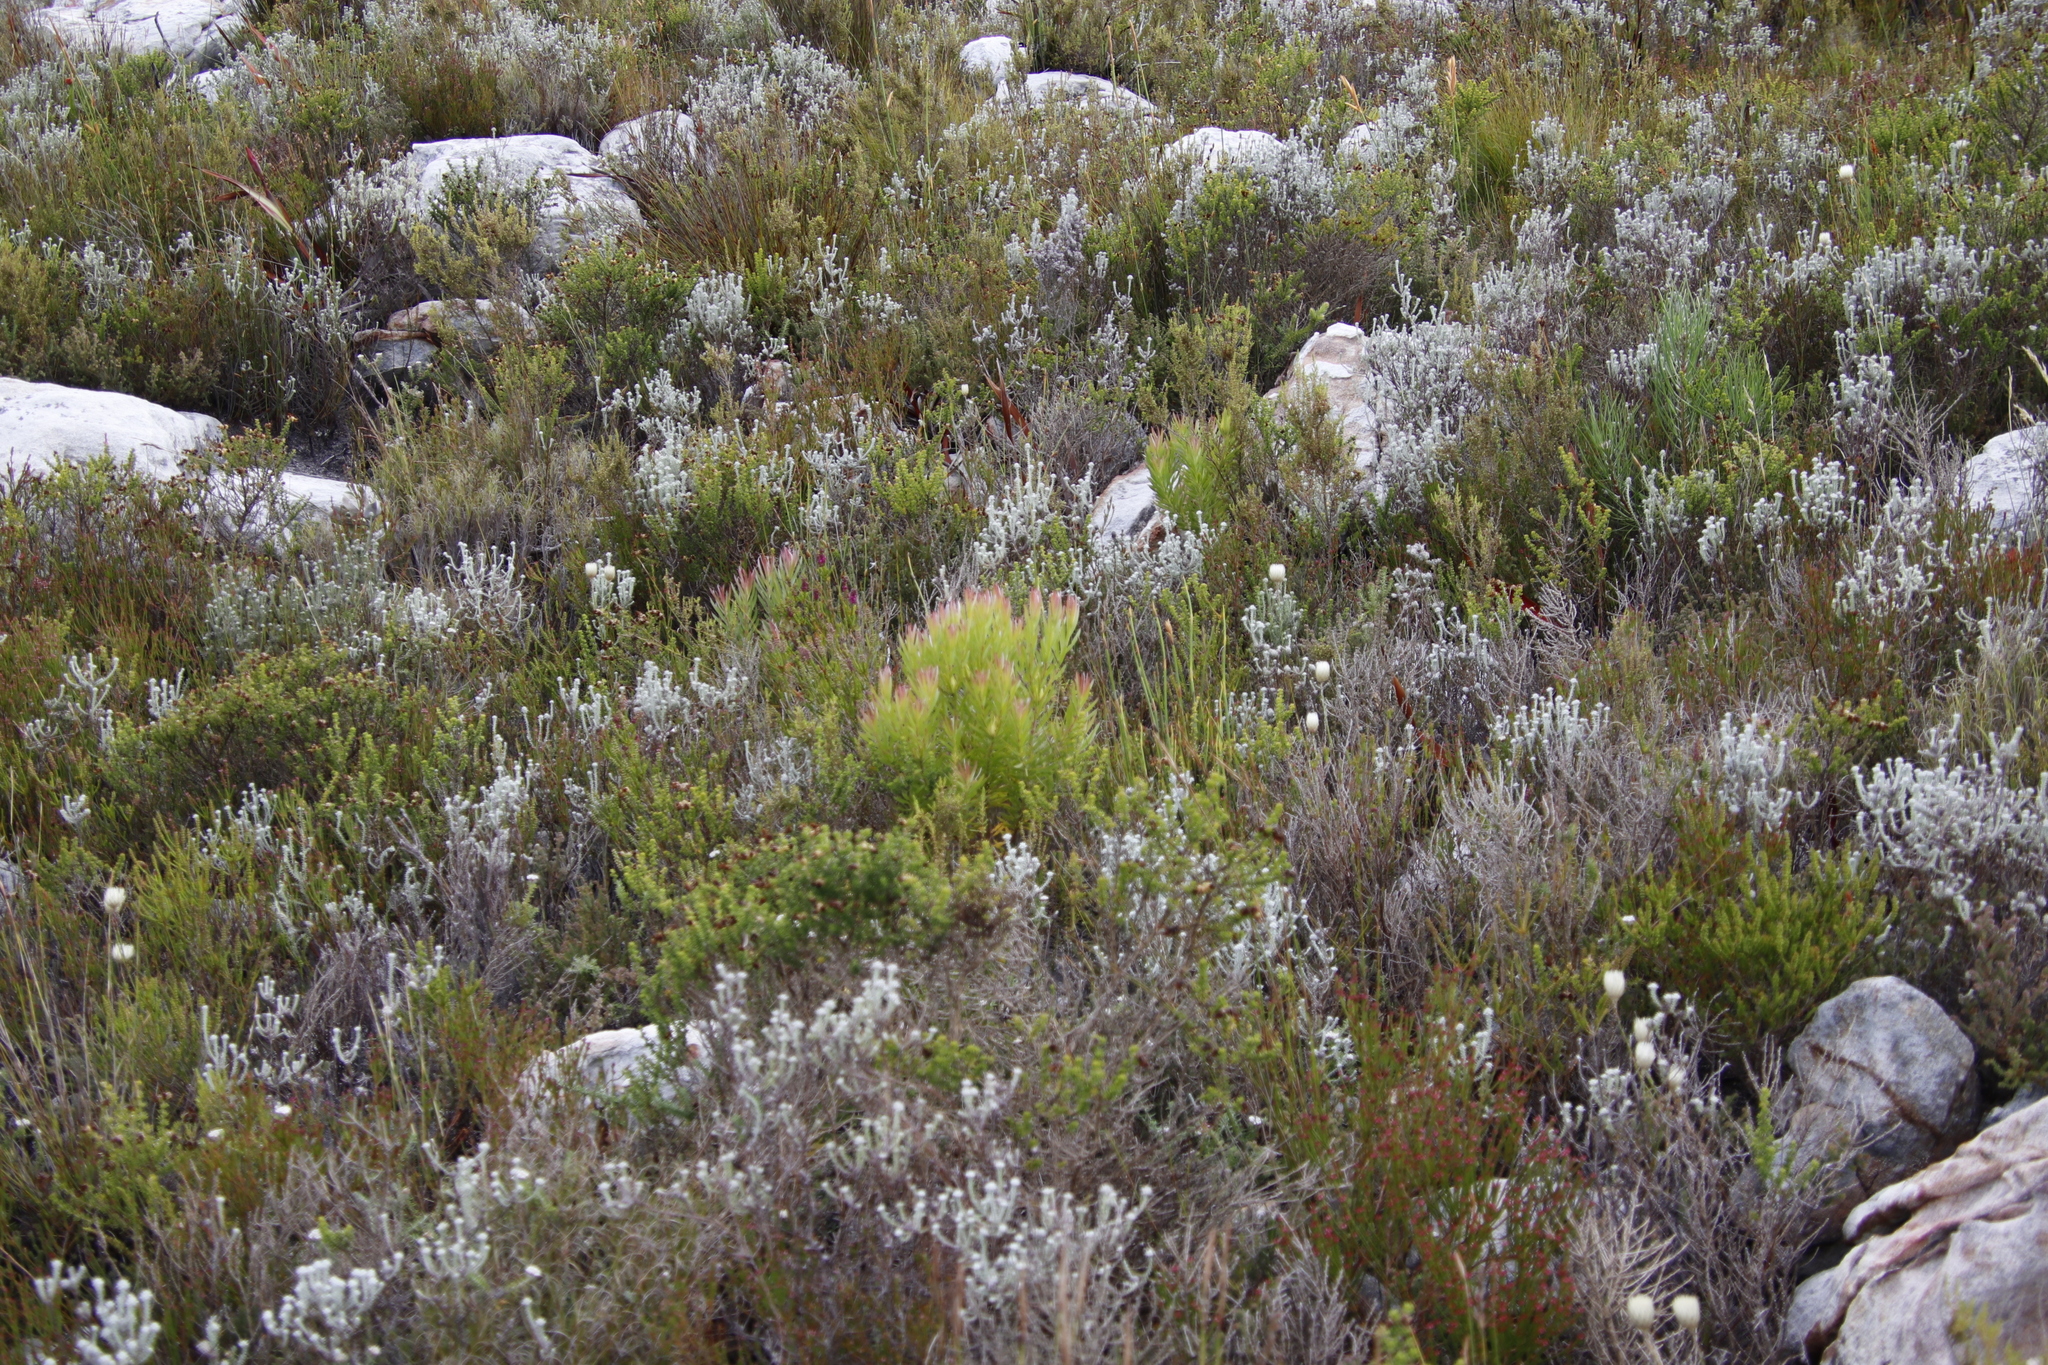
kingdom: Plantae
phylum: Tracheophyta
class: Magnoliopsida
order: Proteales
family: Proteaceae
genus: Leucadendron
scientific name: Leucadendron xanthoconus
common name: Sickle-leaf conebush
